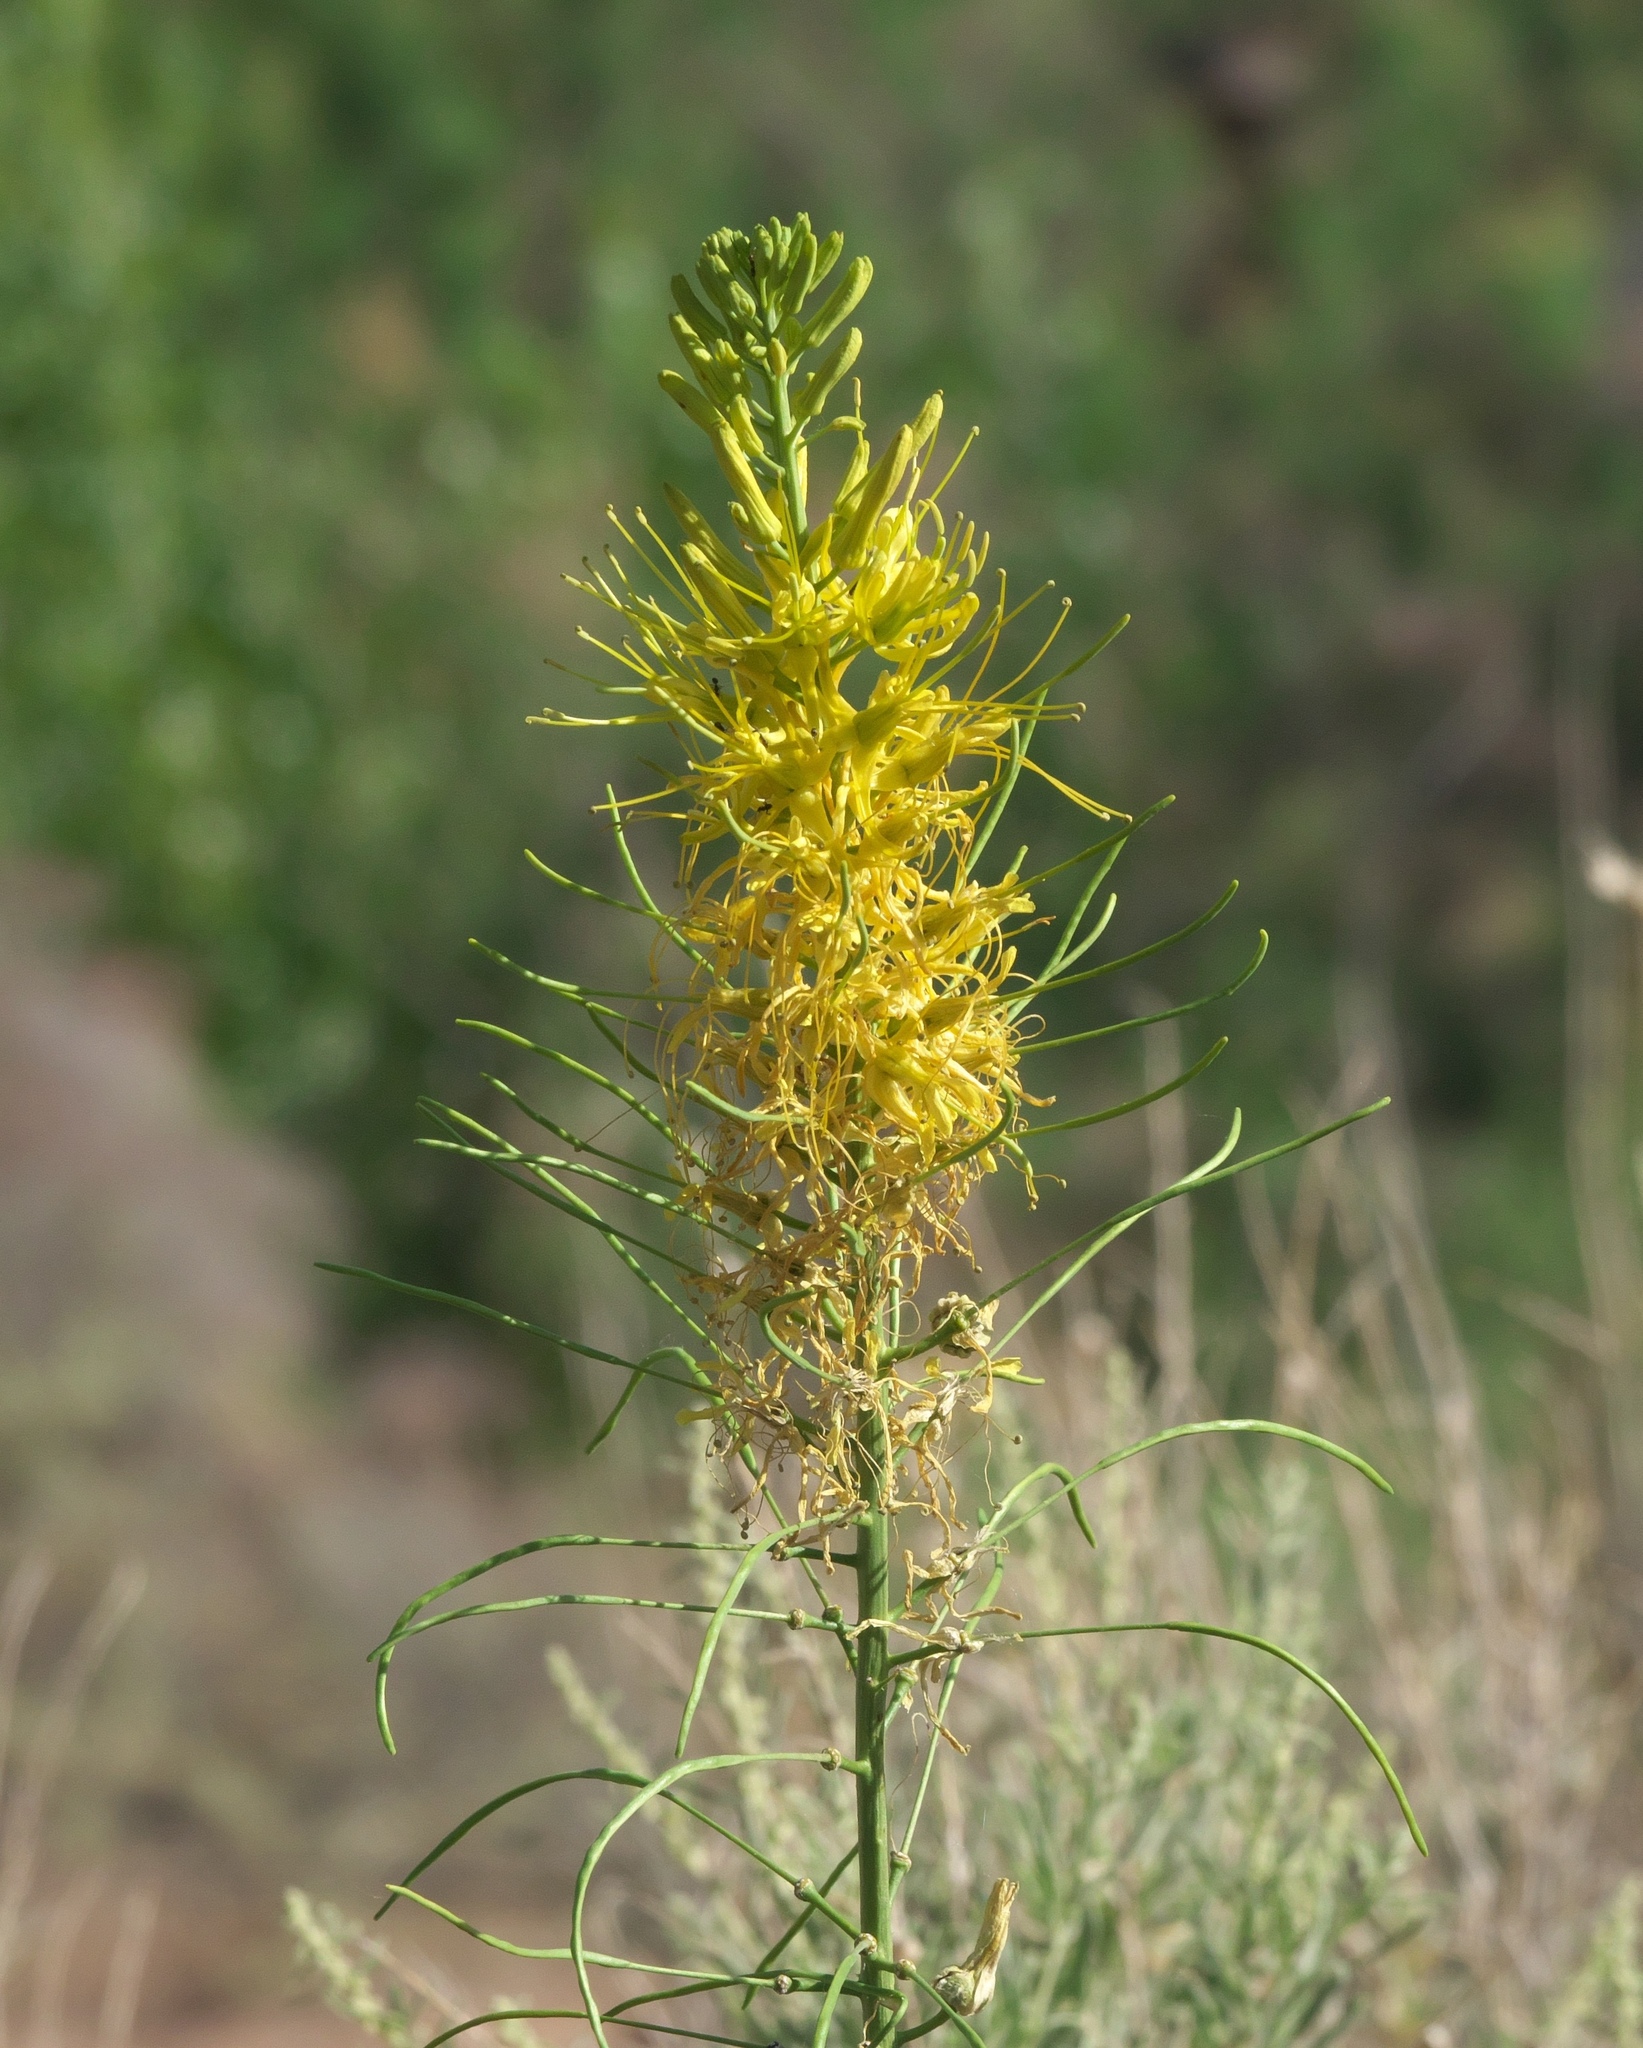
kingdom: Plantae
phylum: Tracheophyta
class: Magnoliopsida
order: Brassicales
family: Brassicaceae
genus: Stanleya
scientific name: Stanleya pinnata
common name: Prince's-plume
